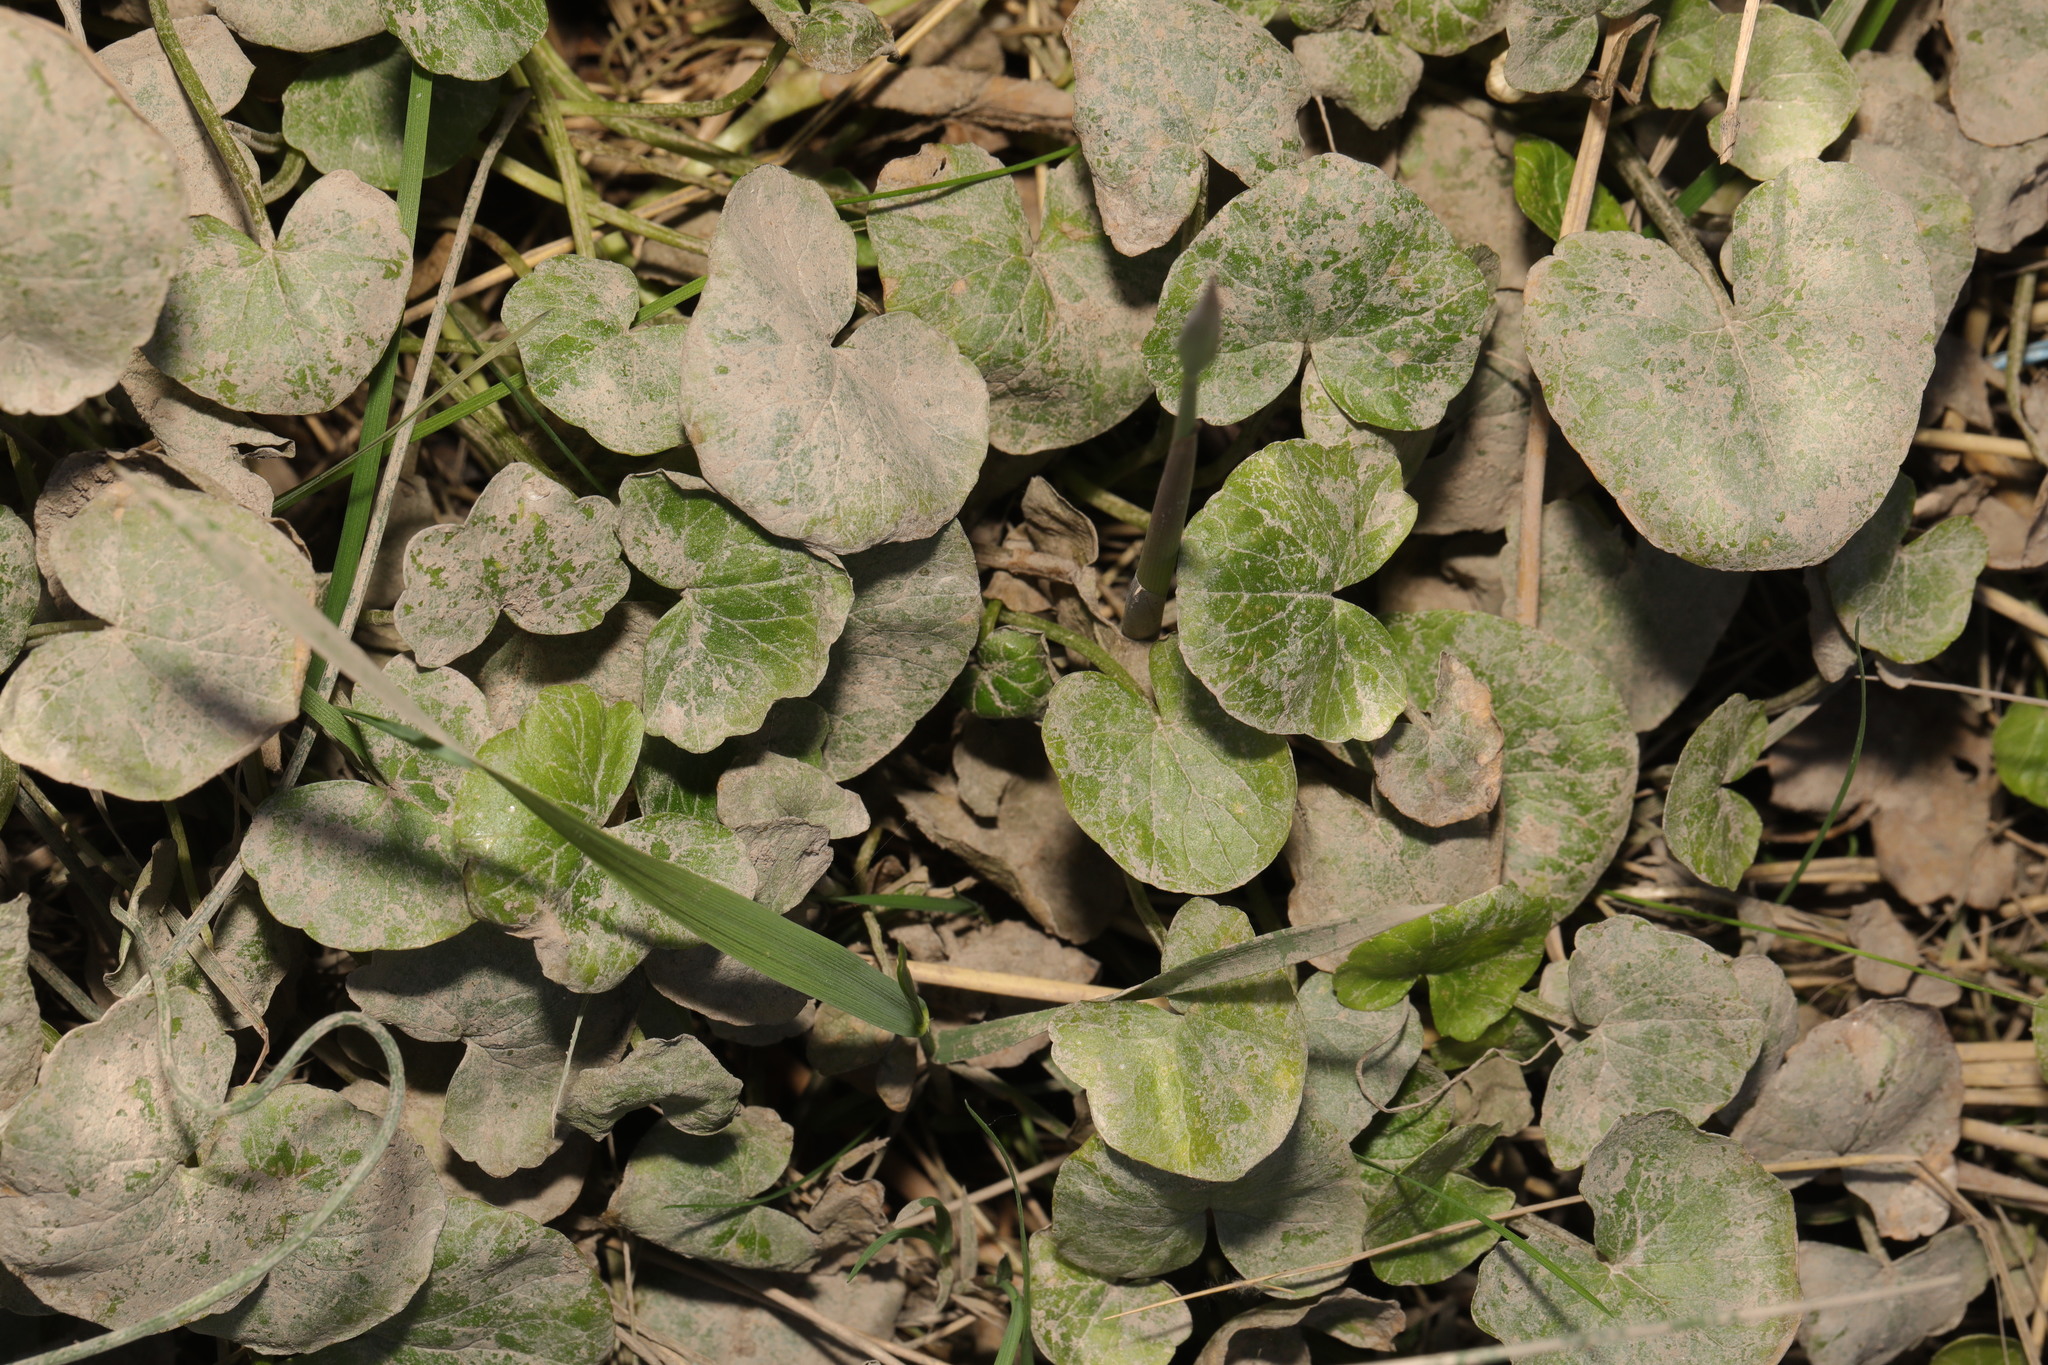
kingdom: Plantae
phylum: Tracheophyta
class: Magnoliopsida
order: Ranunculales
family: Ranunculaceae
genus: Ficaria
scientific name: Ficaria verna
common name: Lesser celandine
